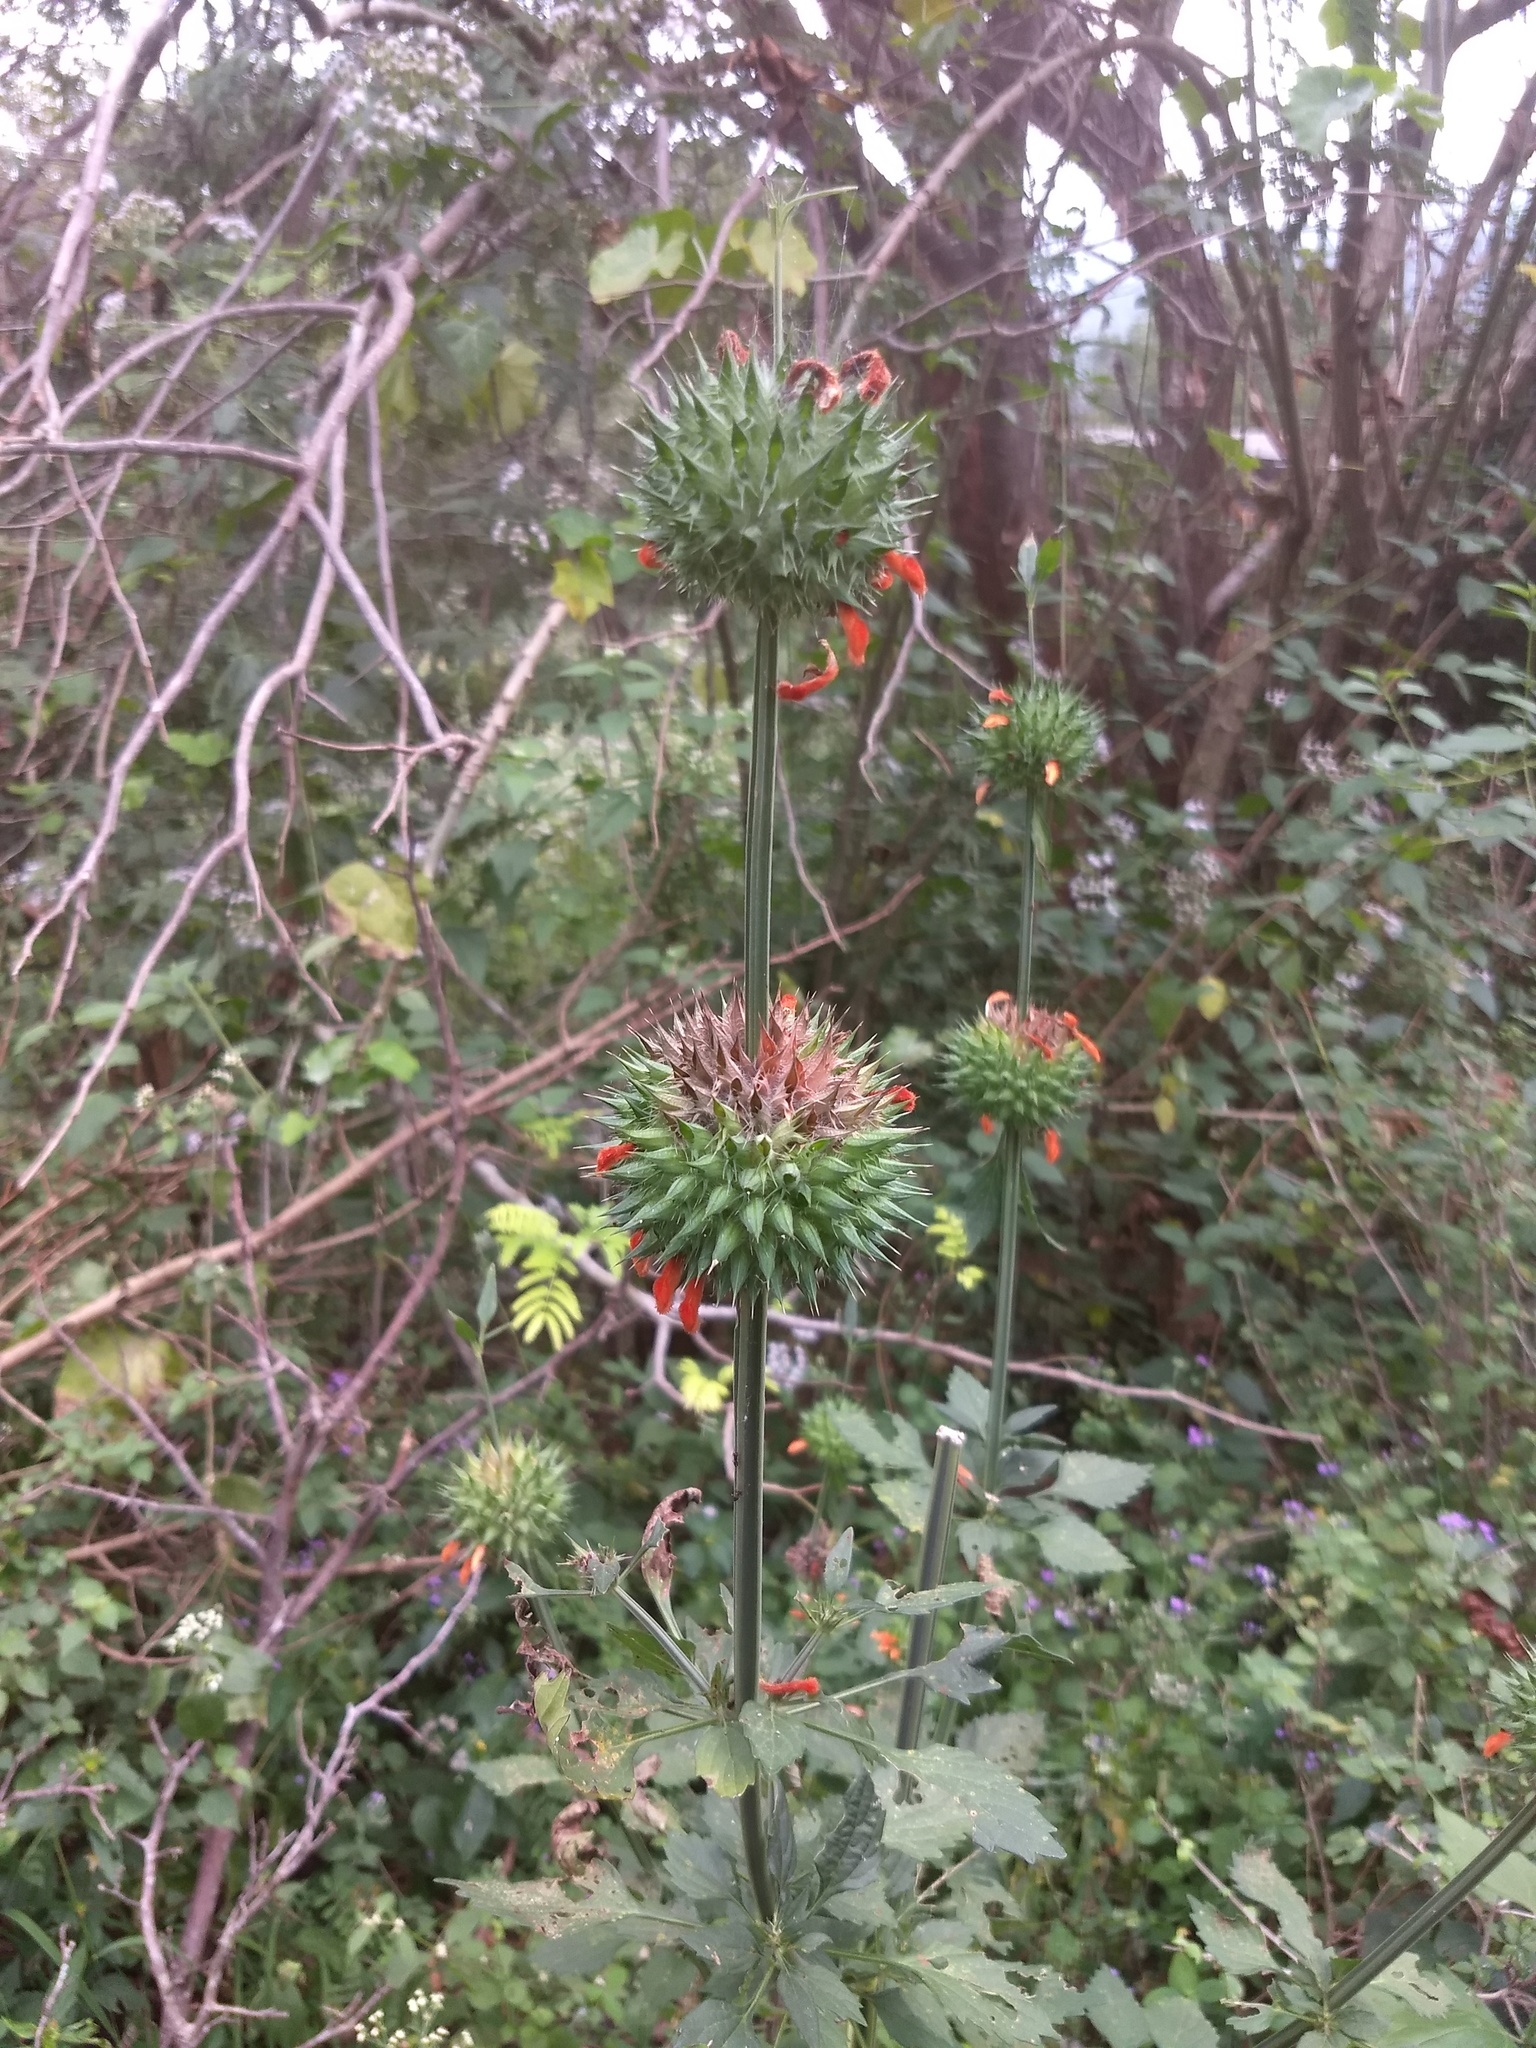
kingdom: Plantae
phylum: Tracheophyta
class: Magnoliopsida
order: Lamiales
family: Lamiaceae
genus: Leonotis
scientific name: Leonotis nepetifolia
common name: Christmas candlestick
